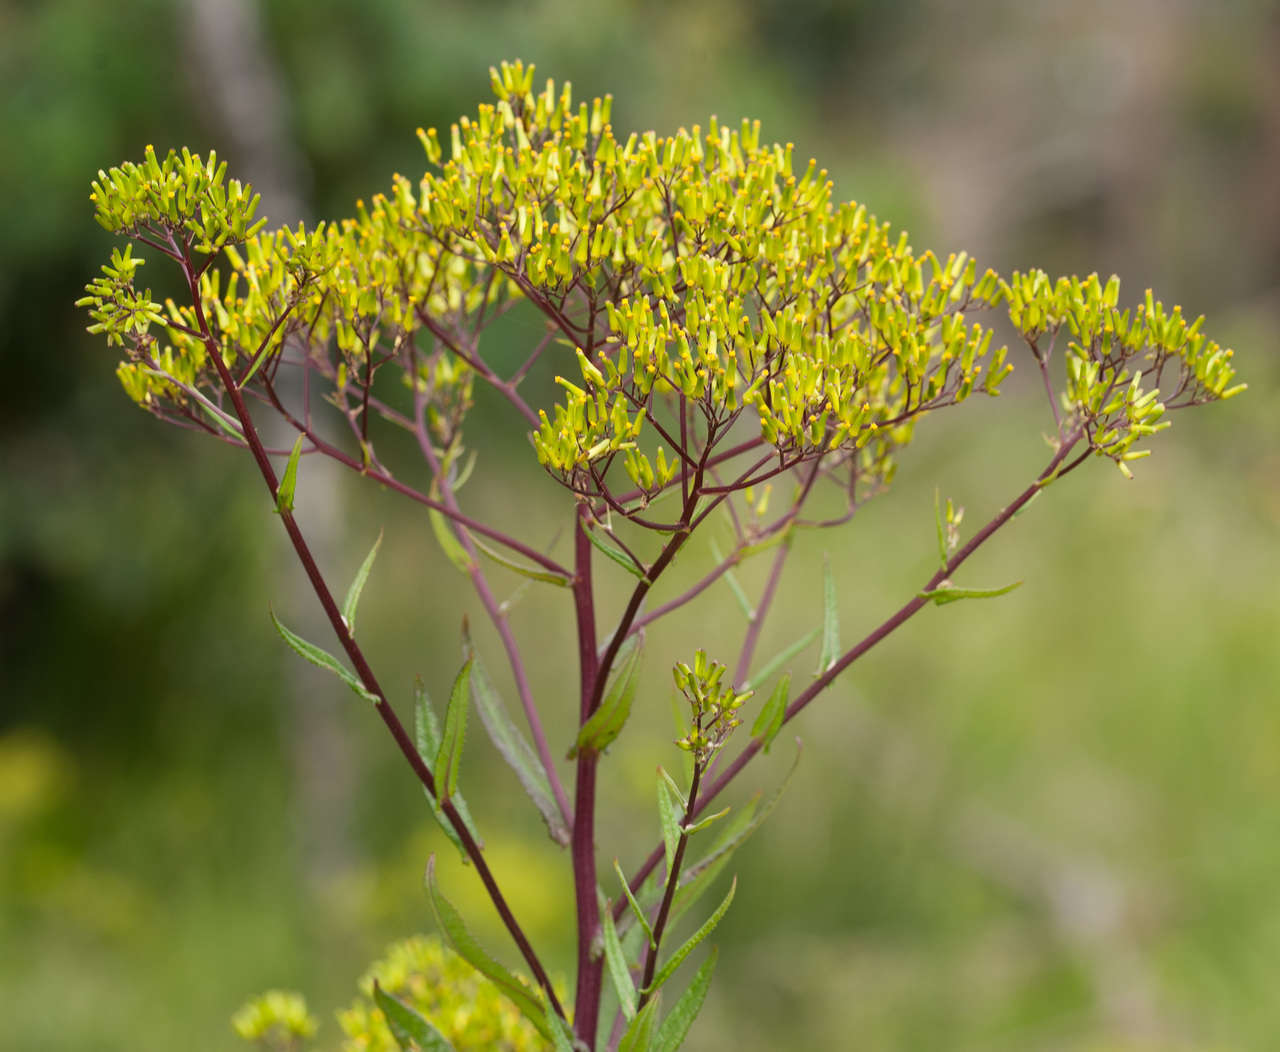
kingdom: Plantae
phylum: Tracheophyta
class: Magnoliopsida
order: Asterales
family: Asteraceae
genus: Senecio
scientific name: Senecio minimus
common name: Toothed fireweed
